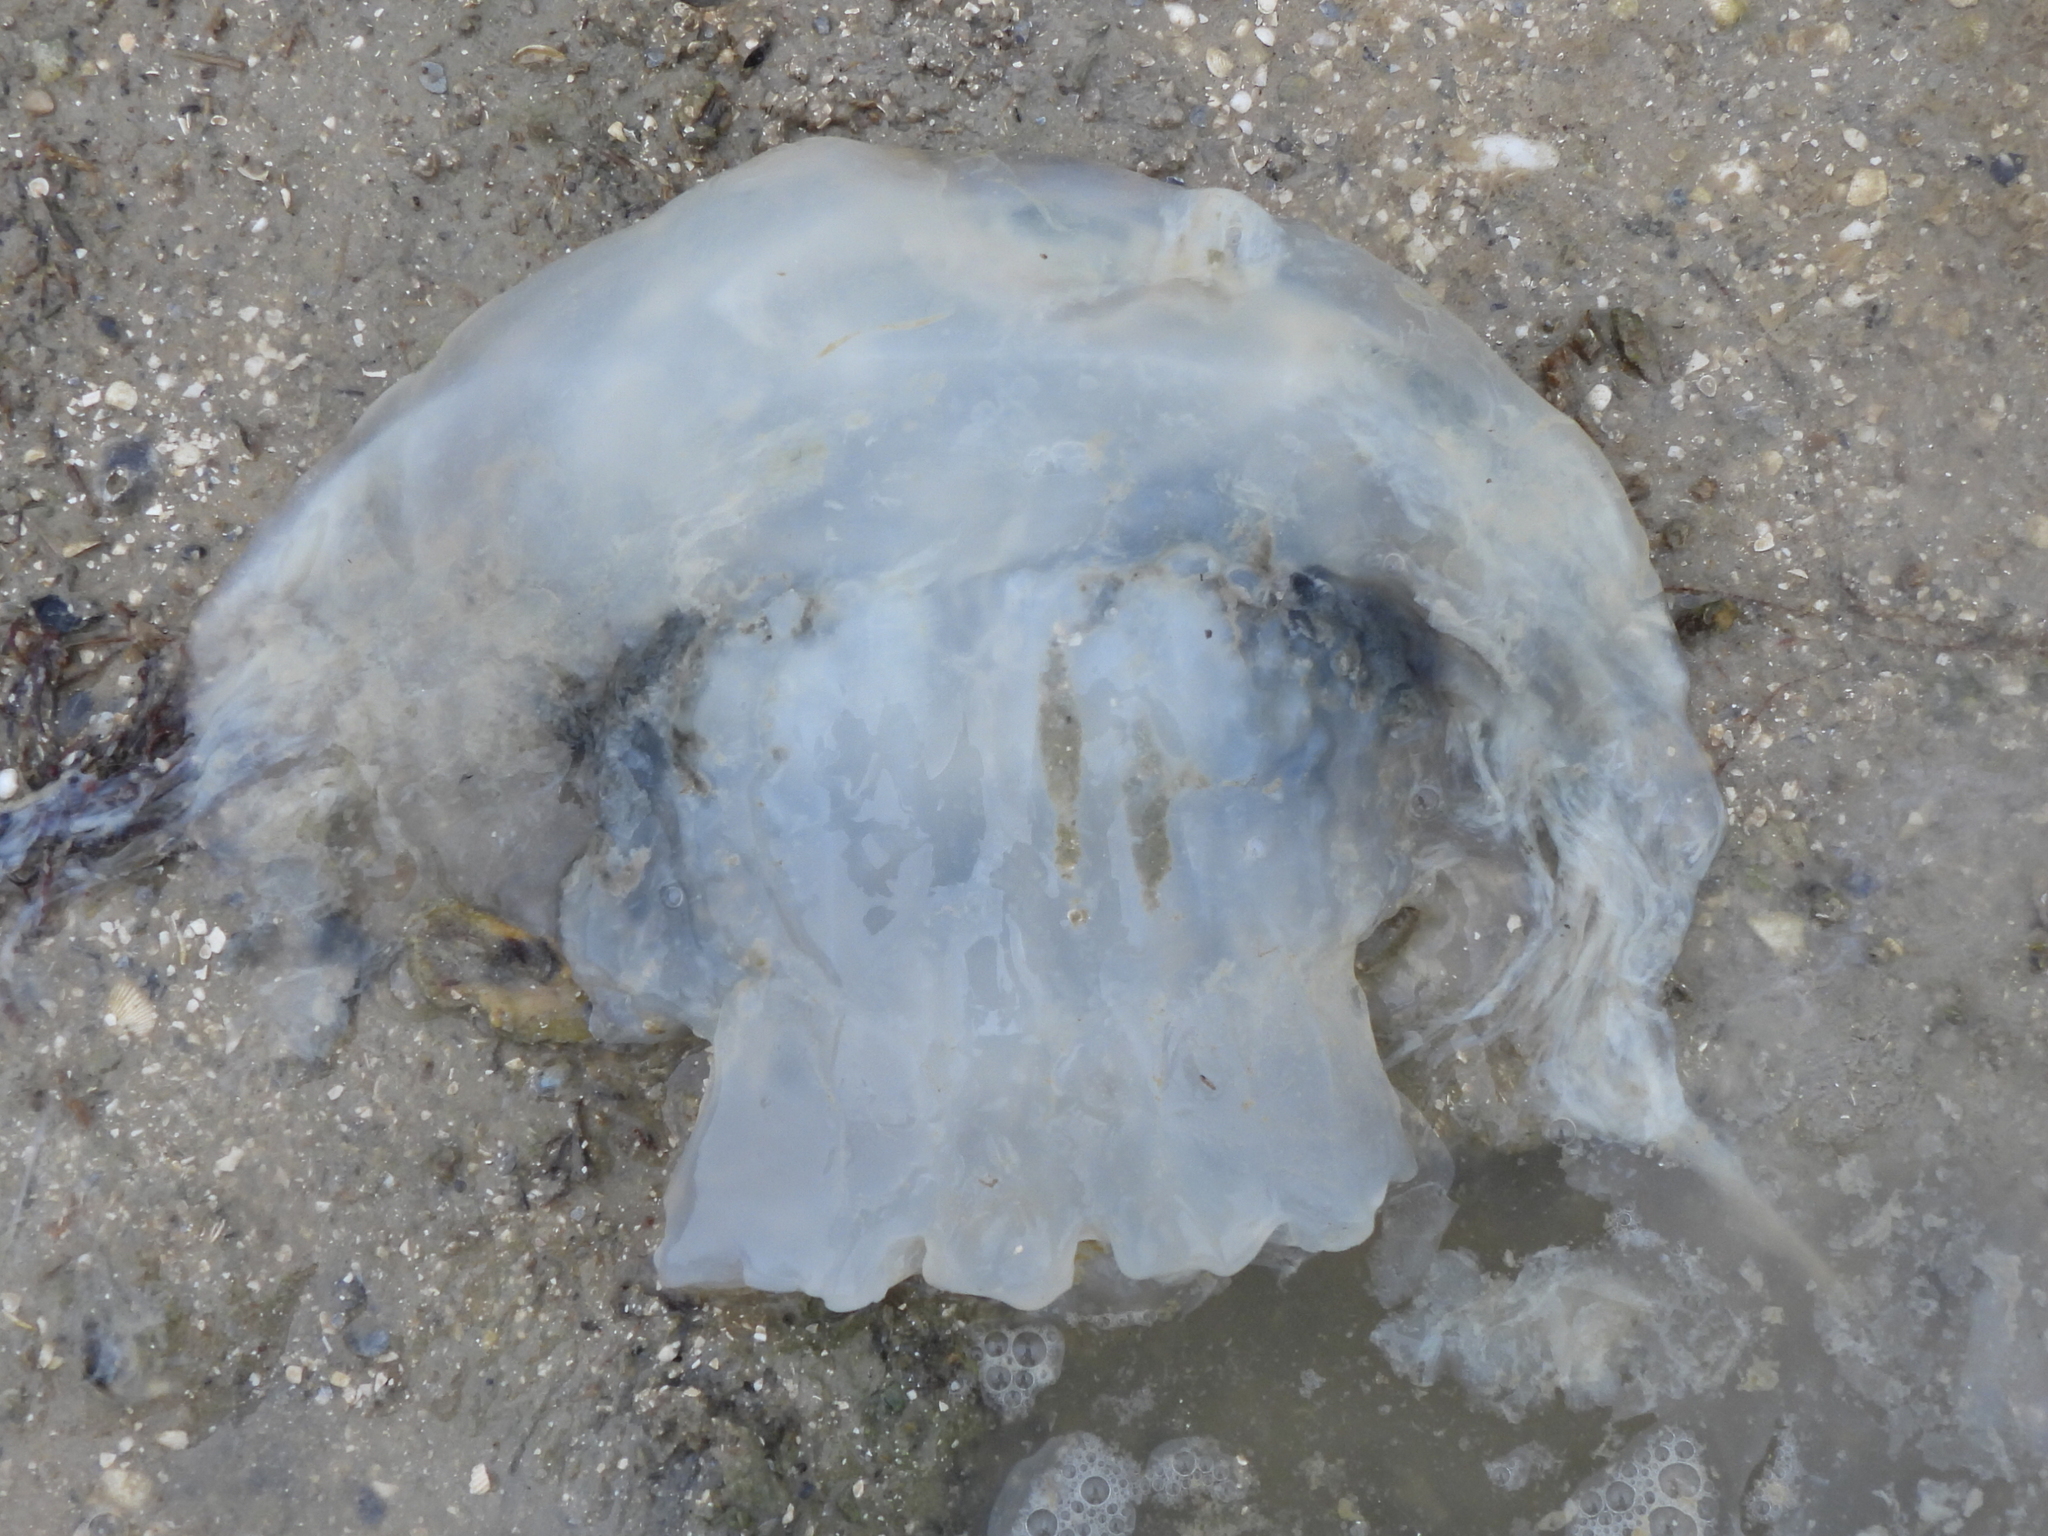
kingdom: Animalia
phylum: Cnidaria
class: Scyphozoa
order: Rhizostomeae
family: Stomolophidae
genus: Stomolophus
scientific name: Stomolophus meleagris
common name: Cabbagehead
